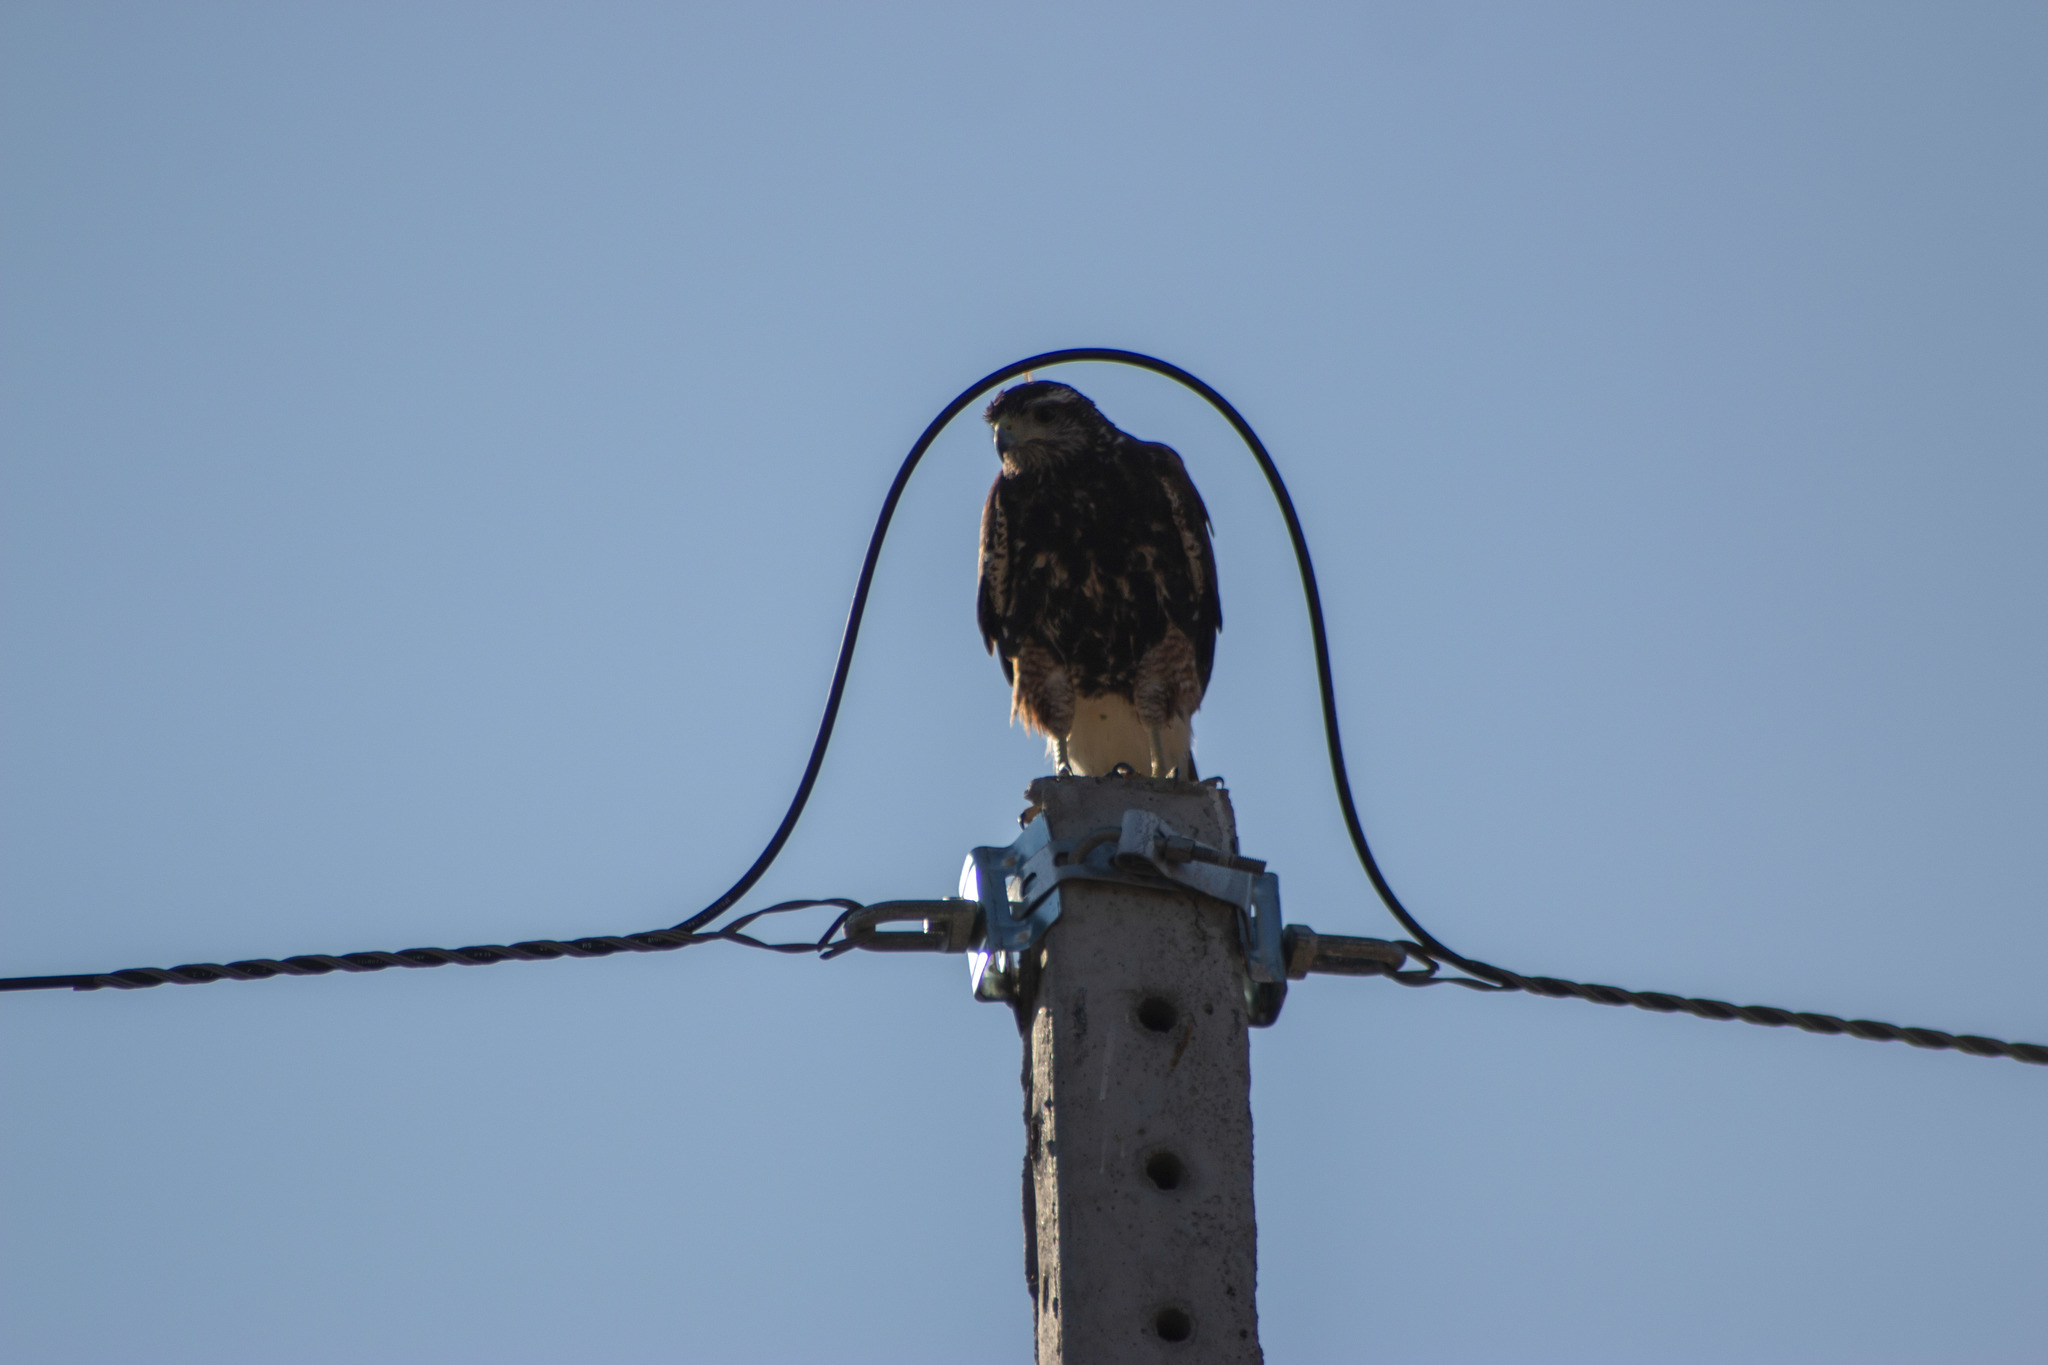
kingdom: Animalia
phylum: Chordata
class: Aves
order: Accipitriformes
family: Accipitridae
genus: Parabuteo
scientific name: Parabuteo unicinctus
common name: Harris's hawk
